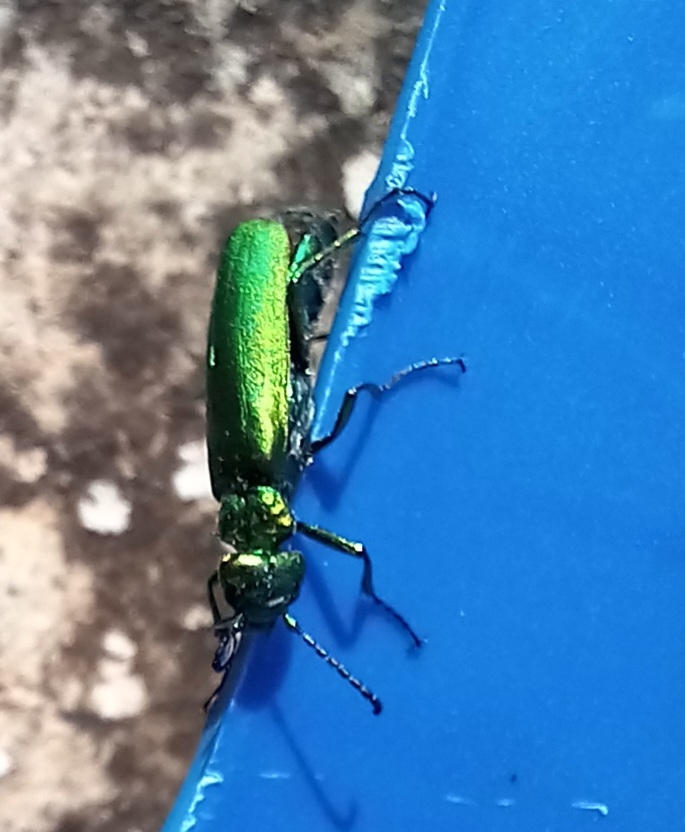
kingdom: Animalia
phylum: Arthropoda
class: Insecta
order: Coleoptera
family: Meloidae
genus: Lytta
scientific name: Lytta vesicatoria
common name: Spanish fly
